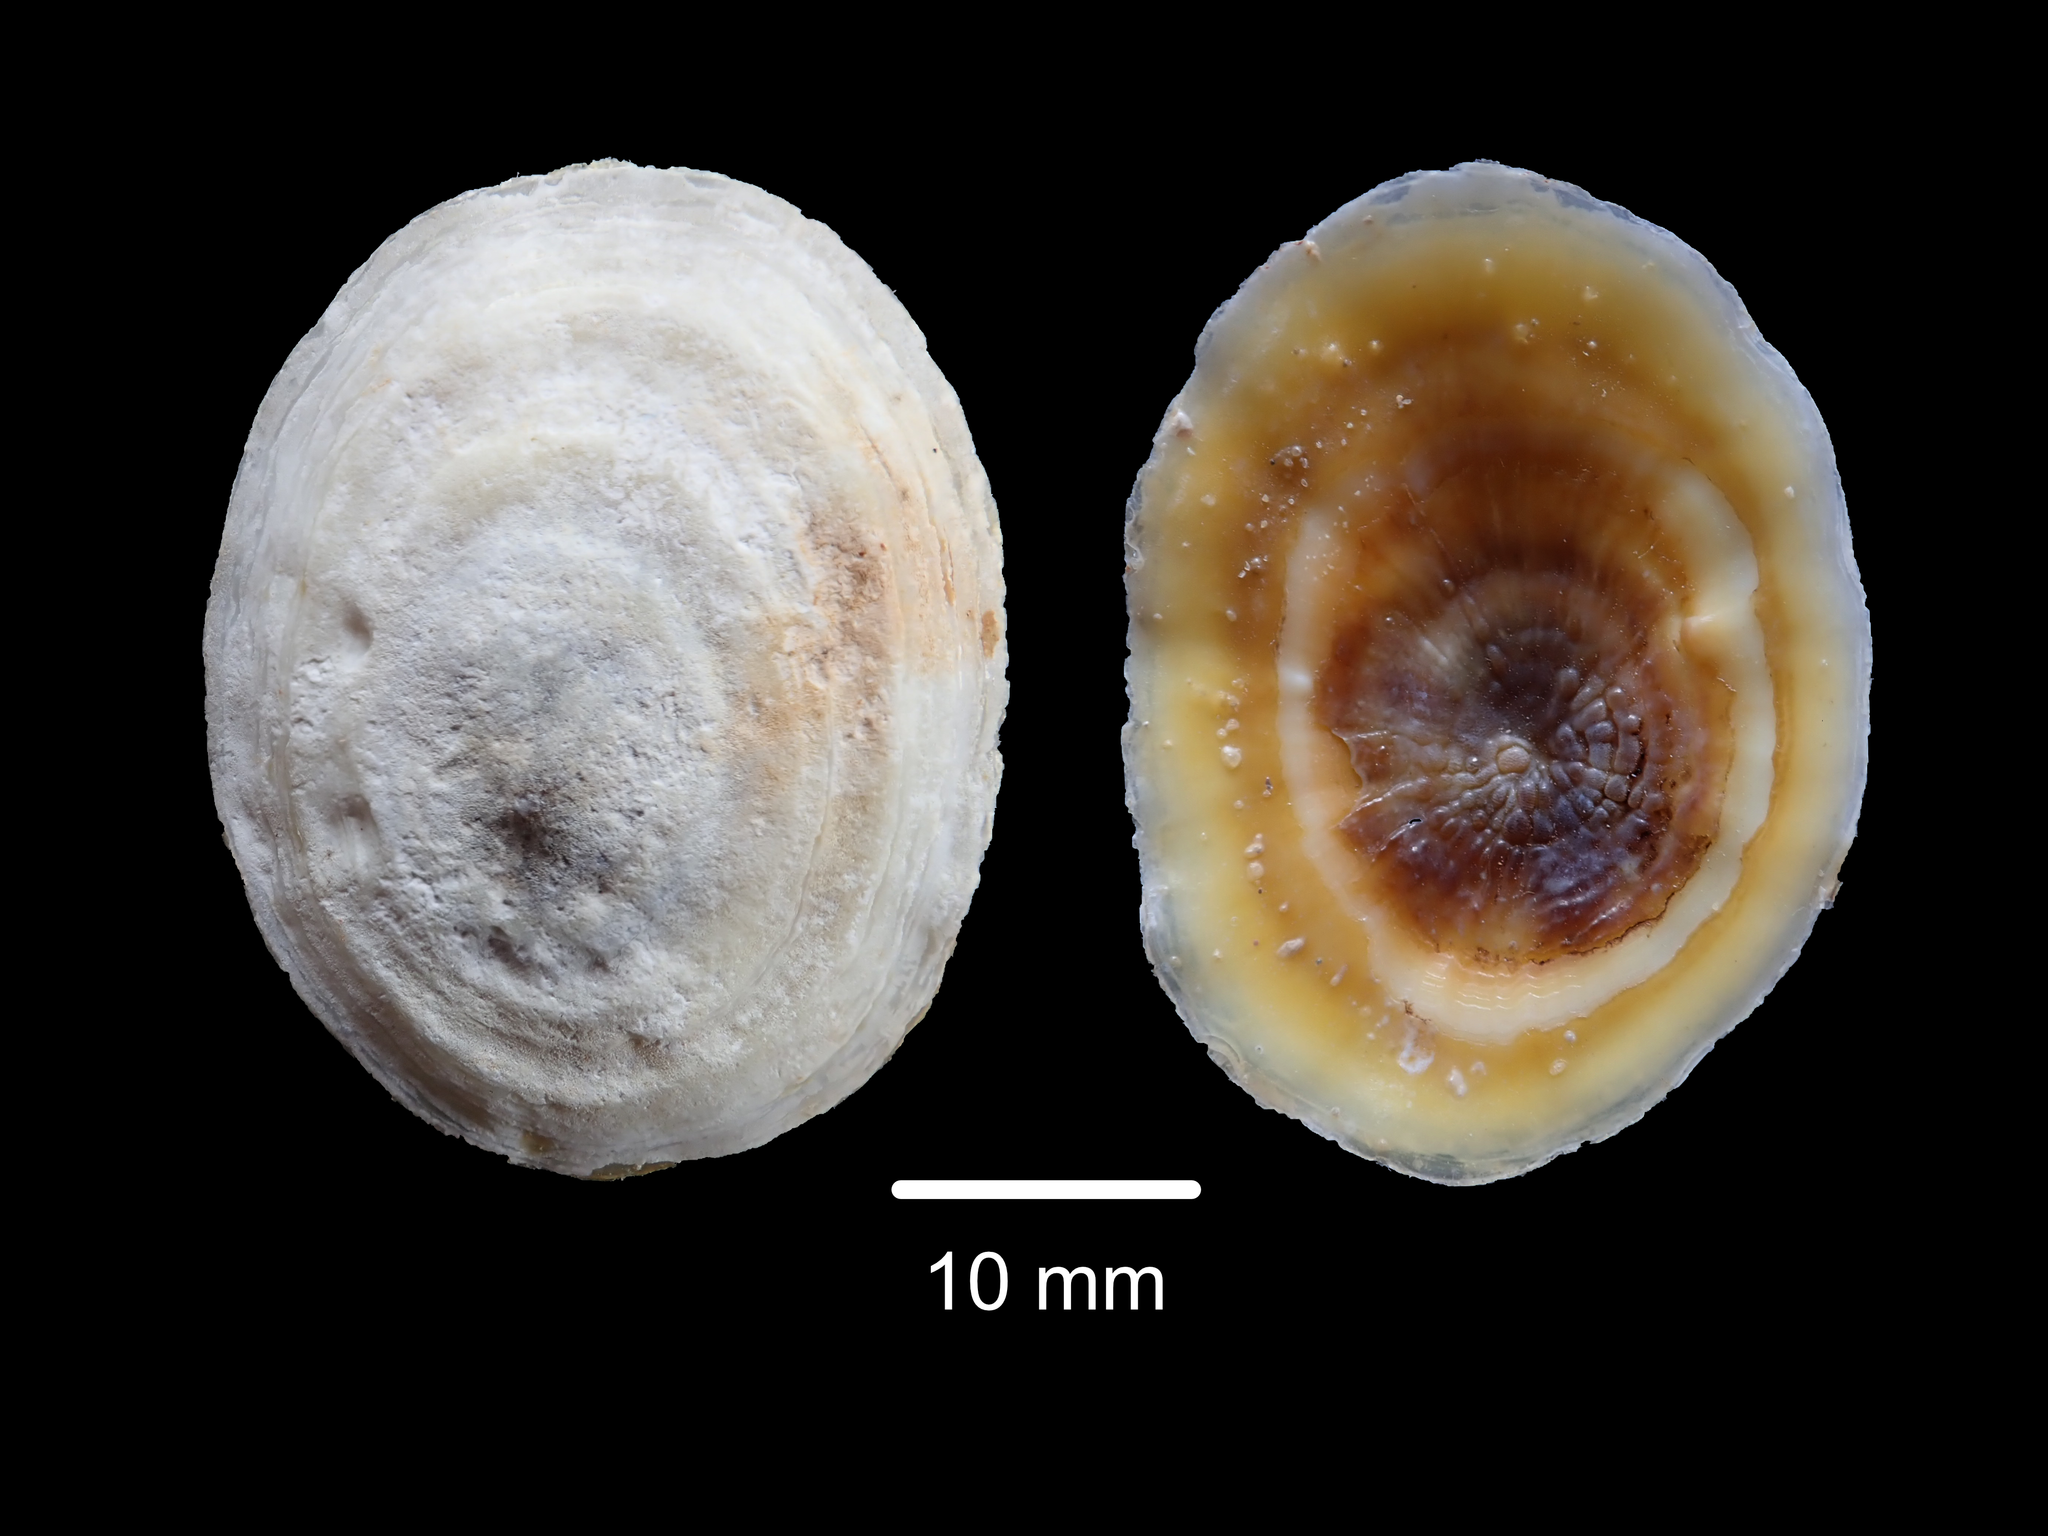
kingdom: Animalia
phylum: Mollusca
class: Gastropoda
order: Umbraculida
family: Umbraculidae
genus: Umbraculum
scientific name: Umbraculum umbraculum
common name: Atlantic umbrella slug
